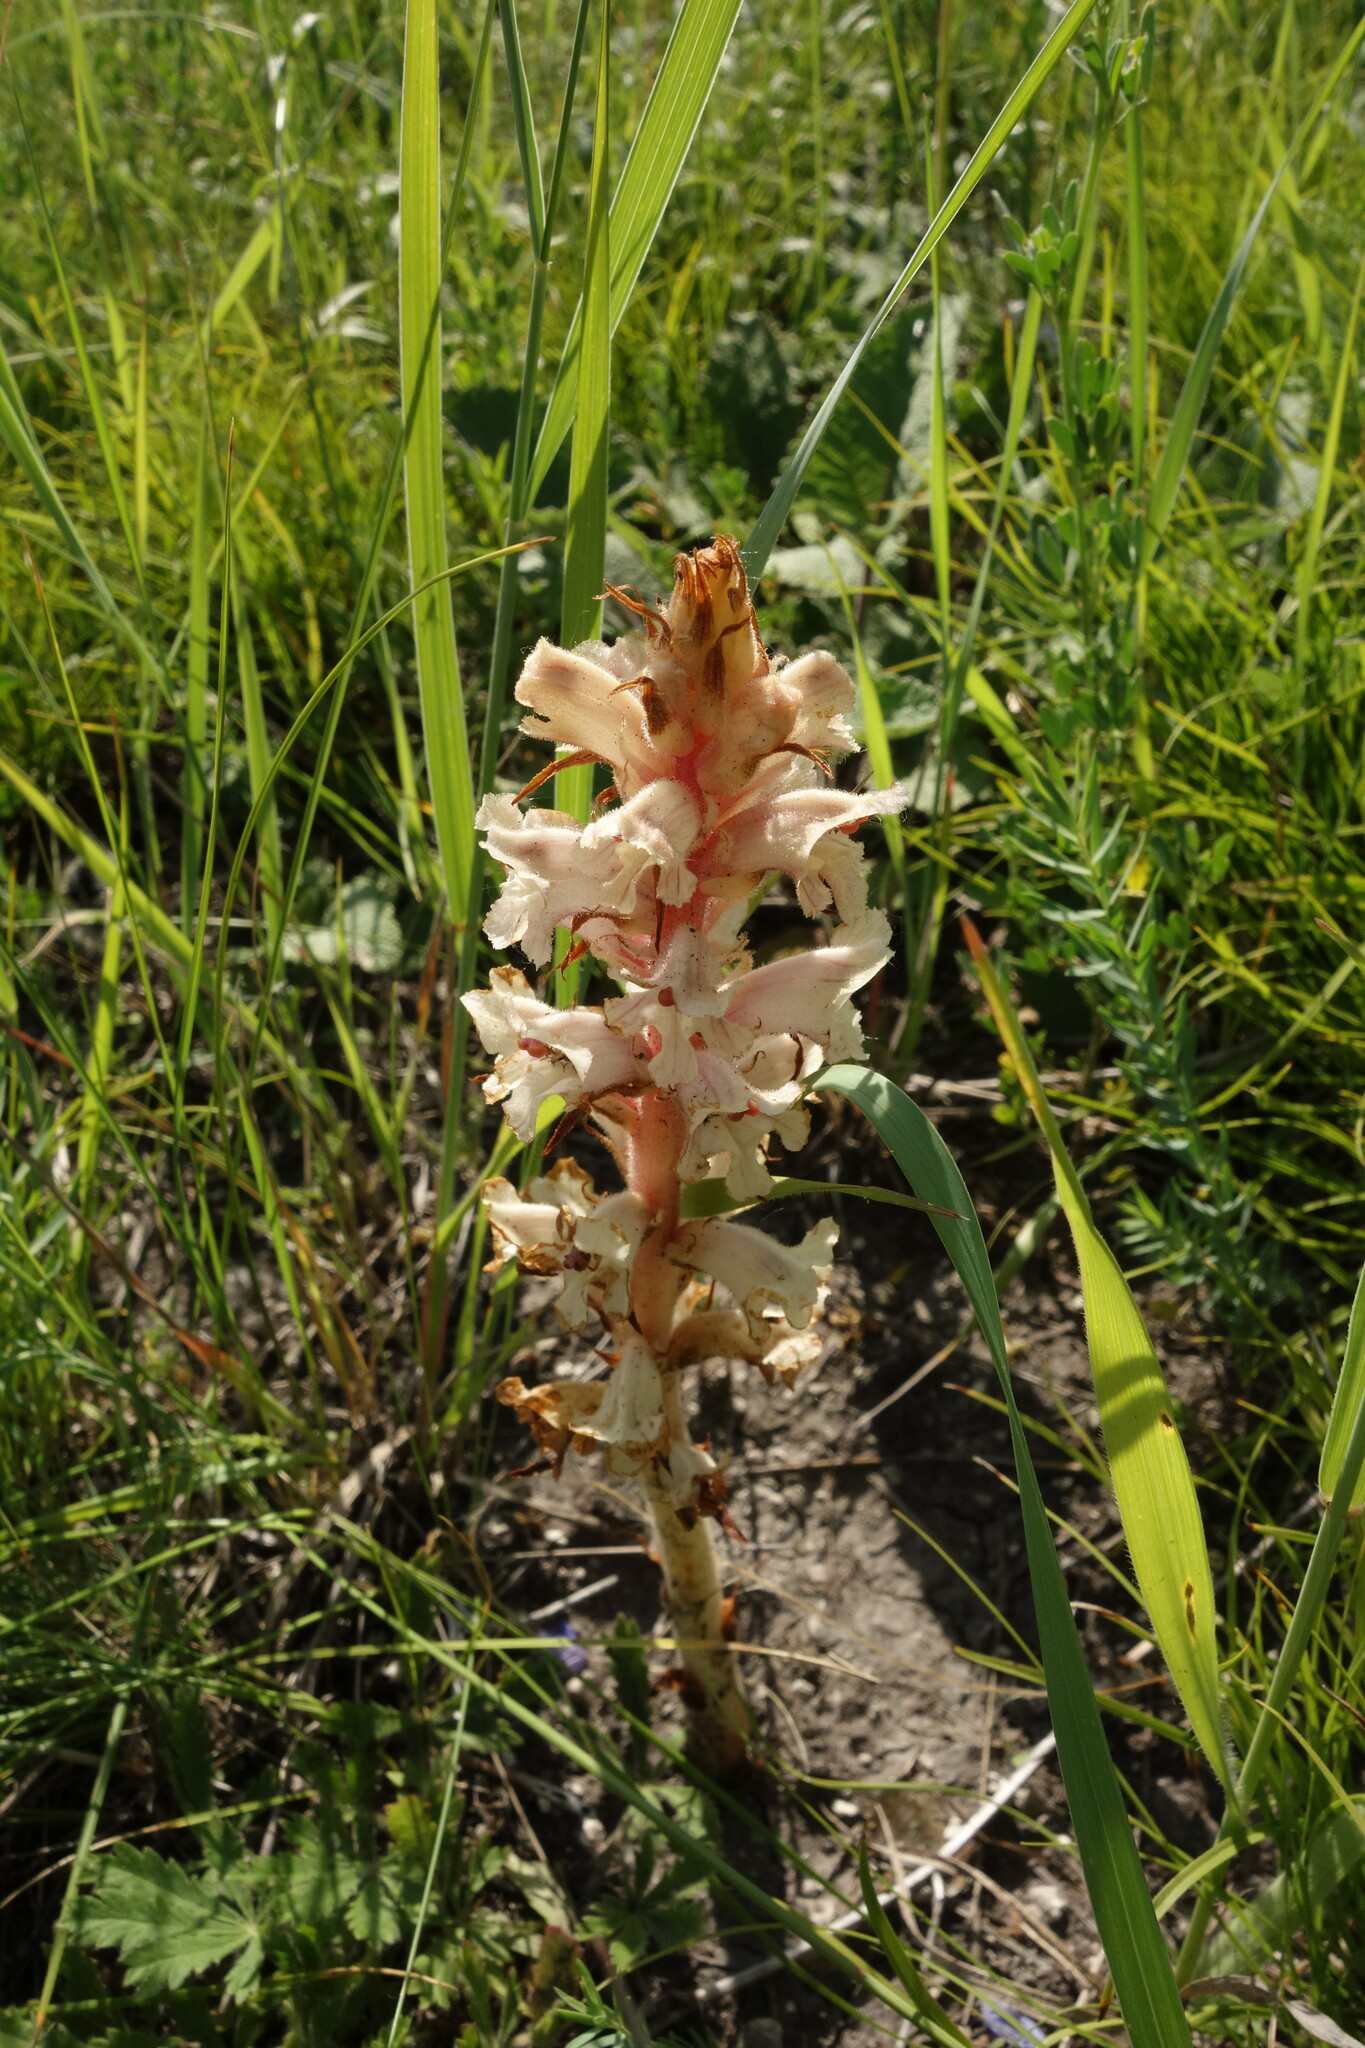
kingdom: Plantae
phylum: Tracheophyta
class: Magnoliopsida
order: Lamiales
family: Orobanchaceae
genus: Orobanche
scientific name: Orobanche alba
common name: Thyme broomrape
